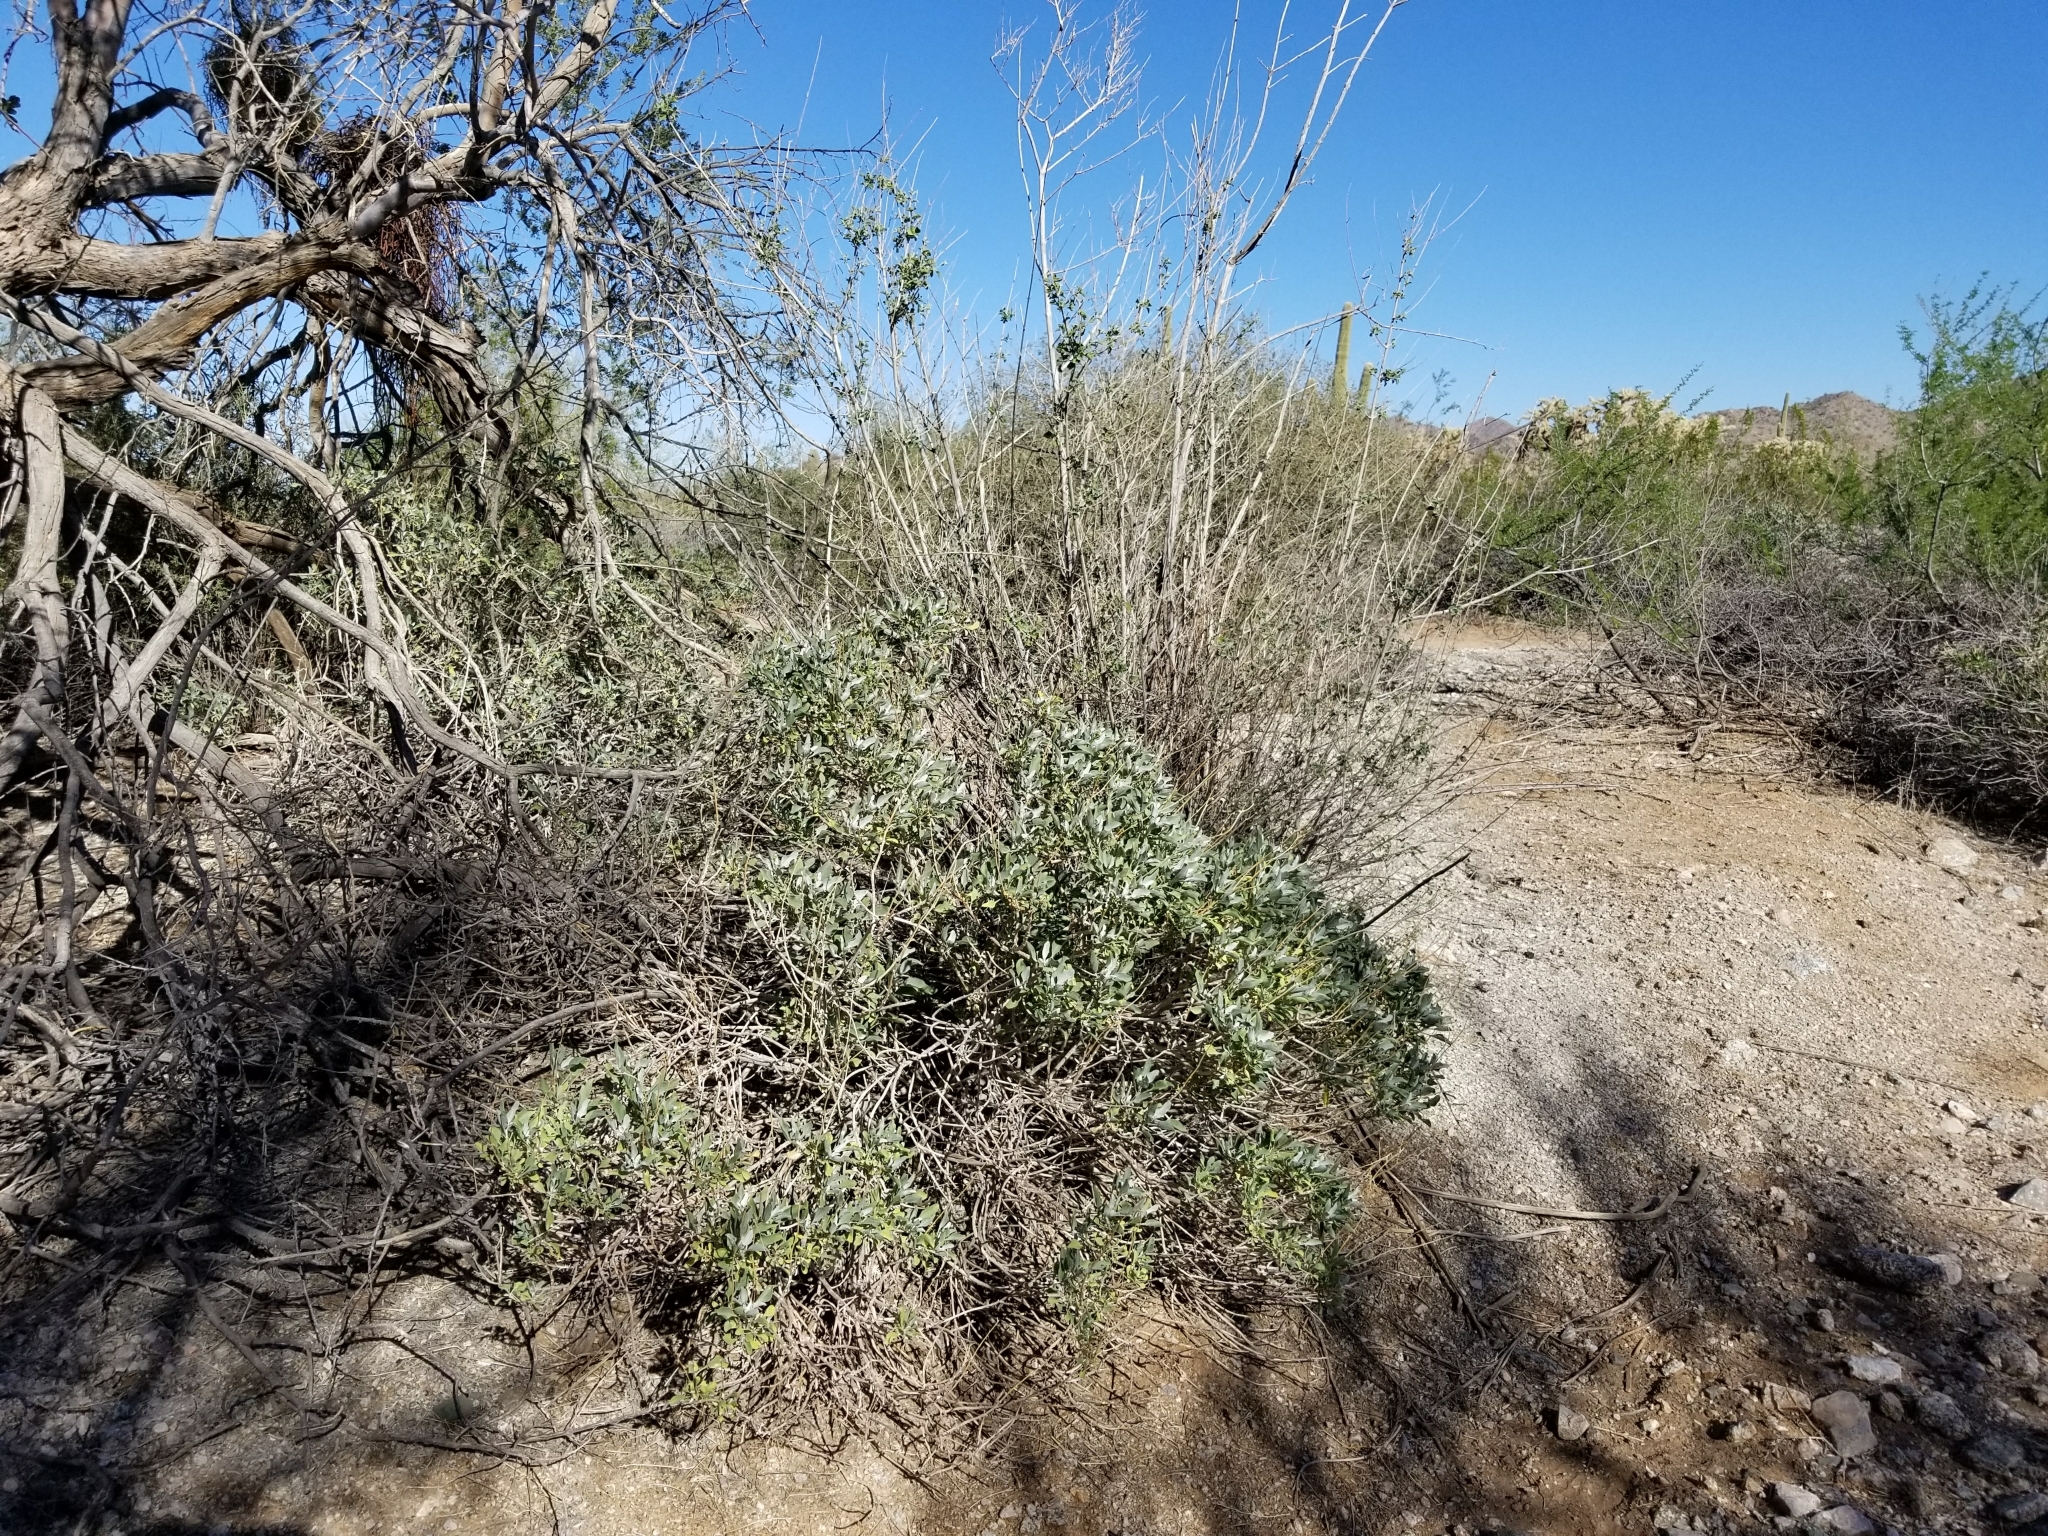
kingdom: Plantae
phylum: Tracheophyta
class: Magnoliopsida
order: Asterales
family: Asteraceae
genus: Encelia
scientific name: Encelia farinosa
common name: Brittlebush
